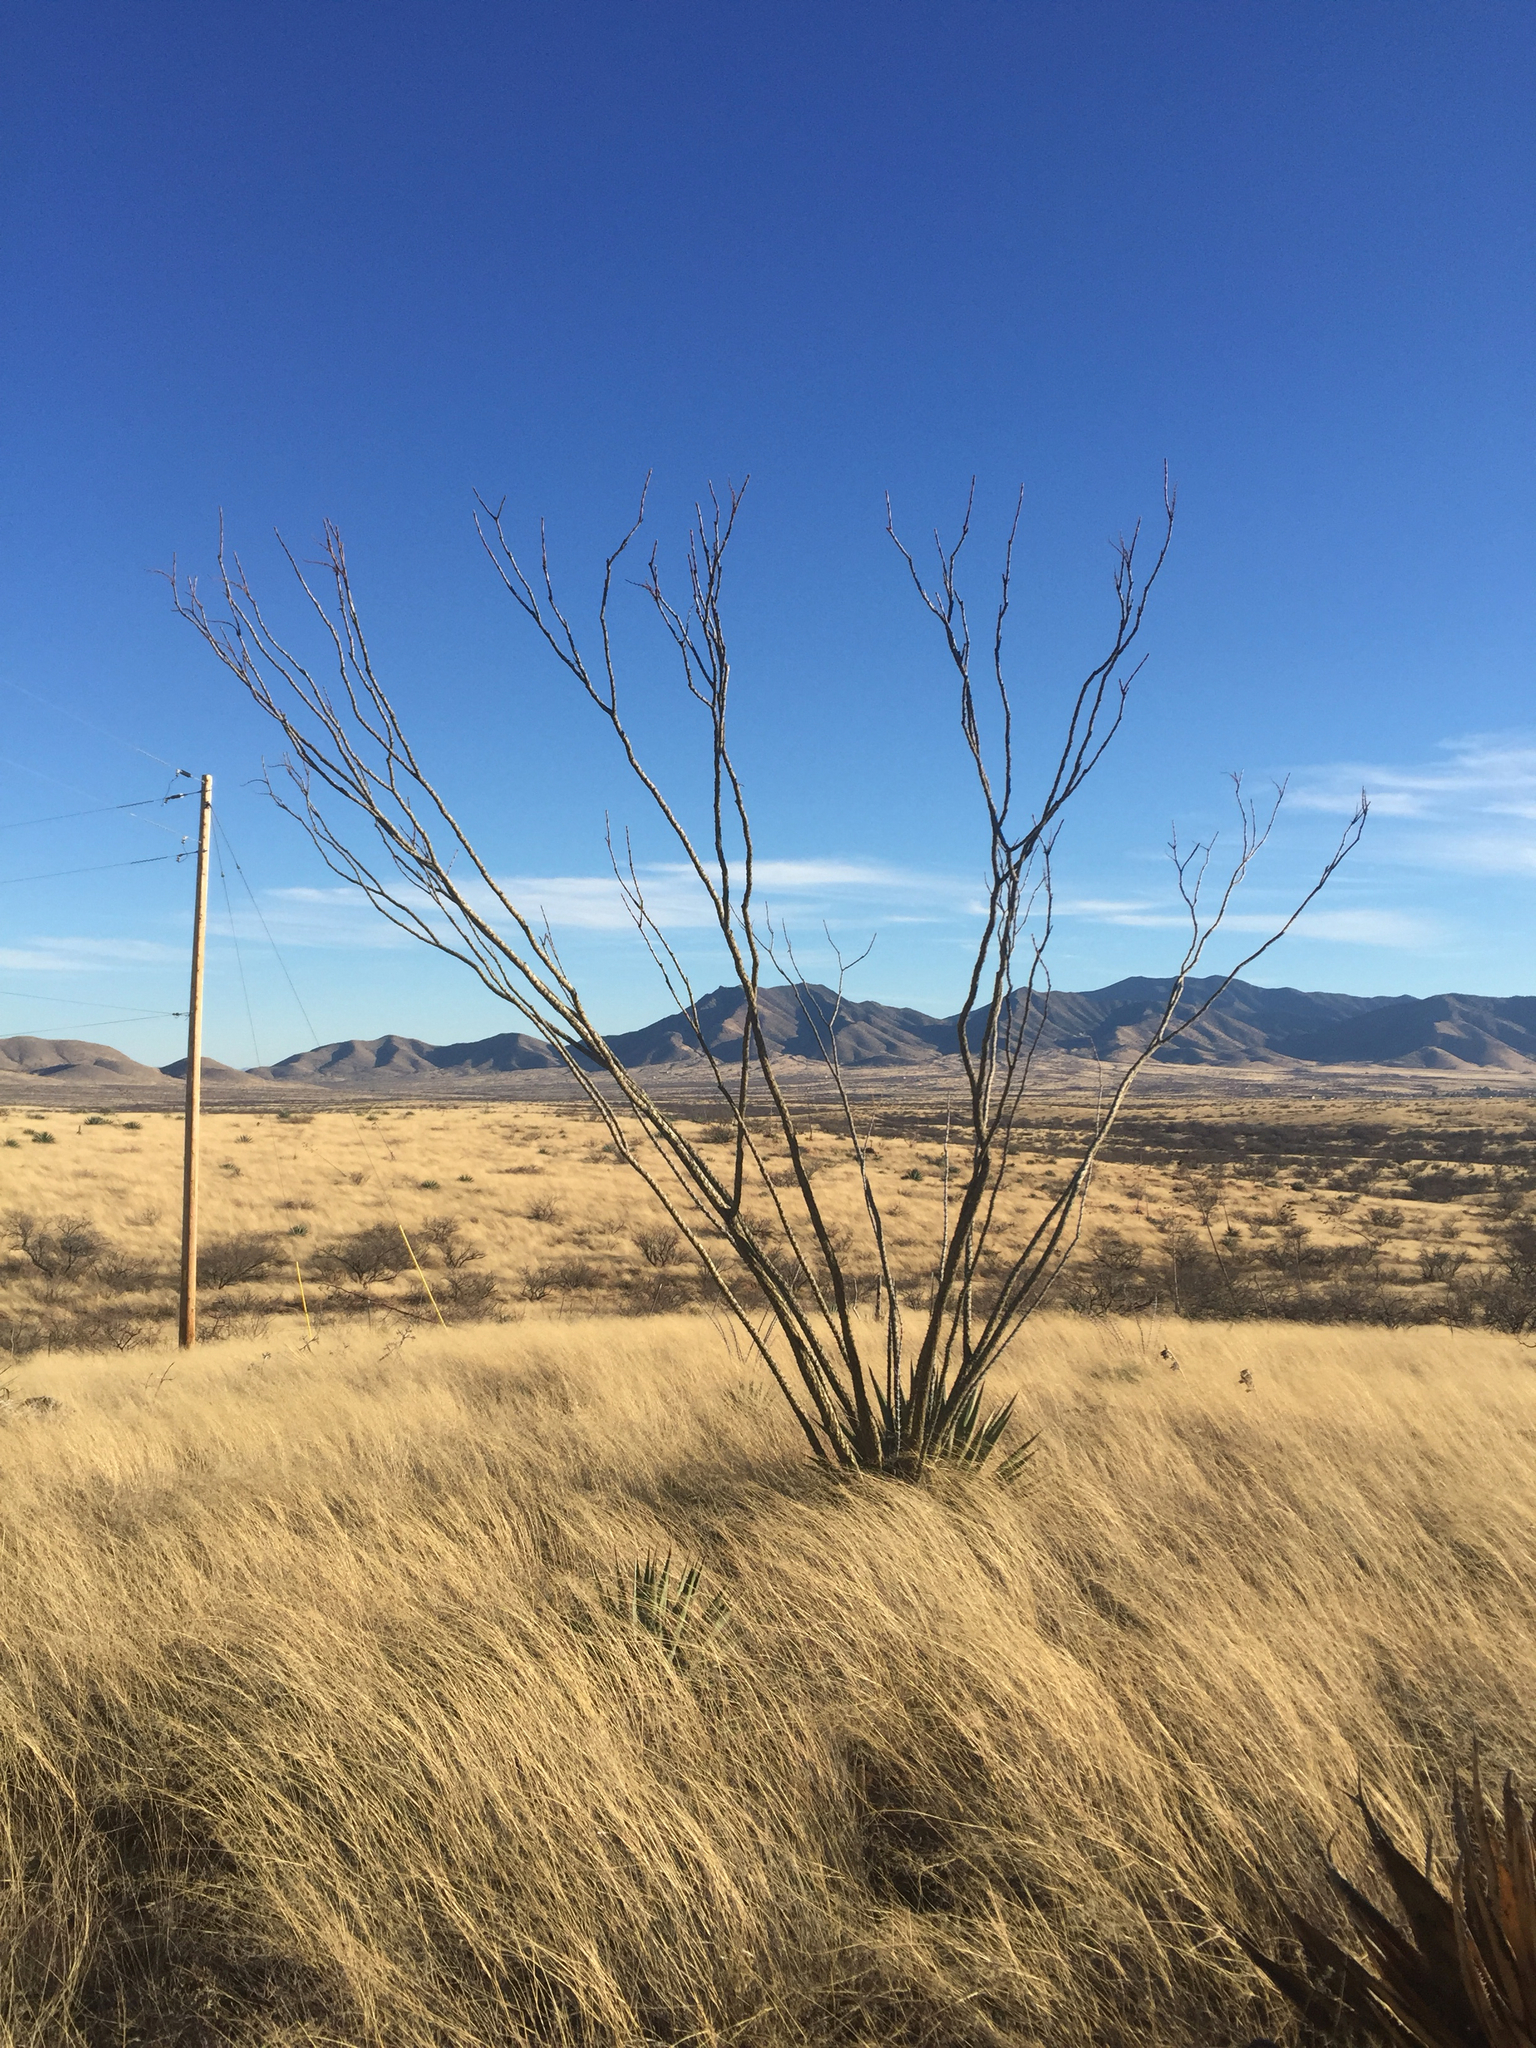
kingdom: Plantae
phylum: Tracheophyta
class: Magnoliopsida
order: Ericales
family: Fouquieriaceae
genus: Fouquieria
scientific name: Fouquieria splendens
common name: Vine-cactus
